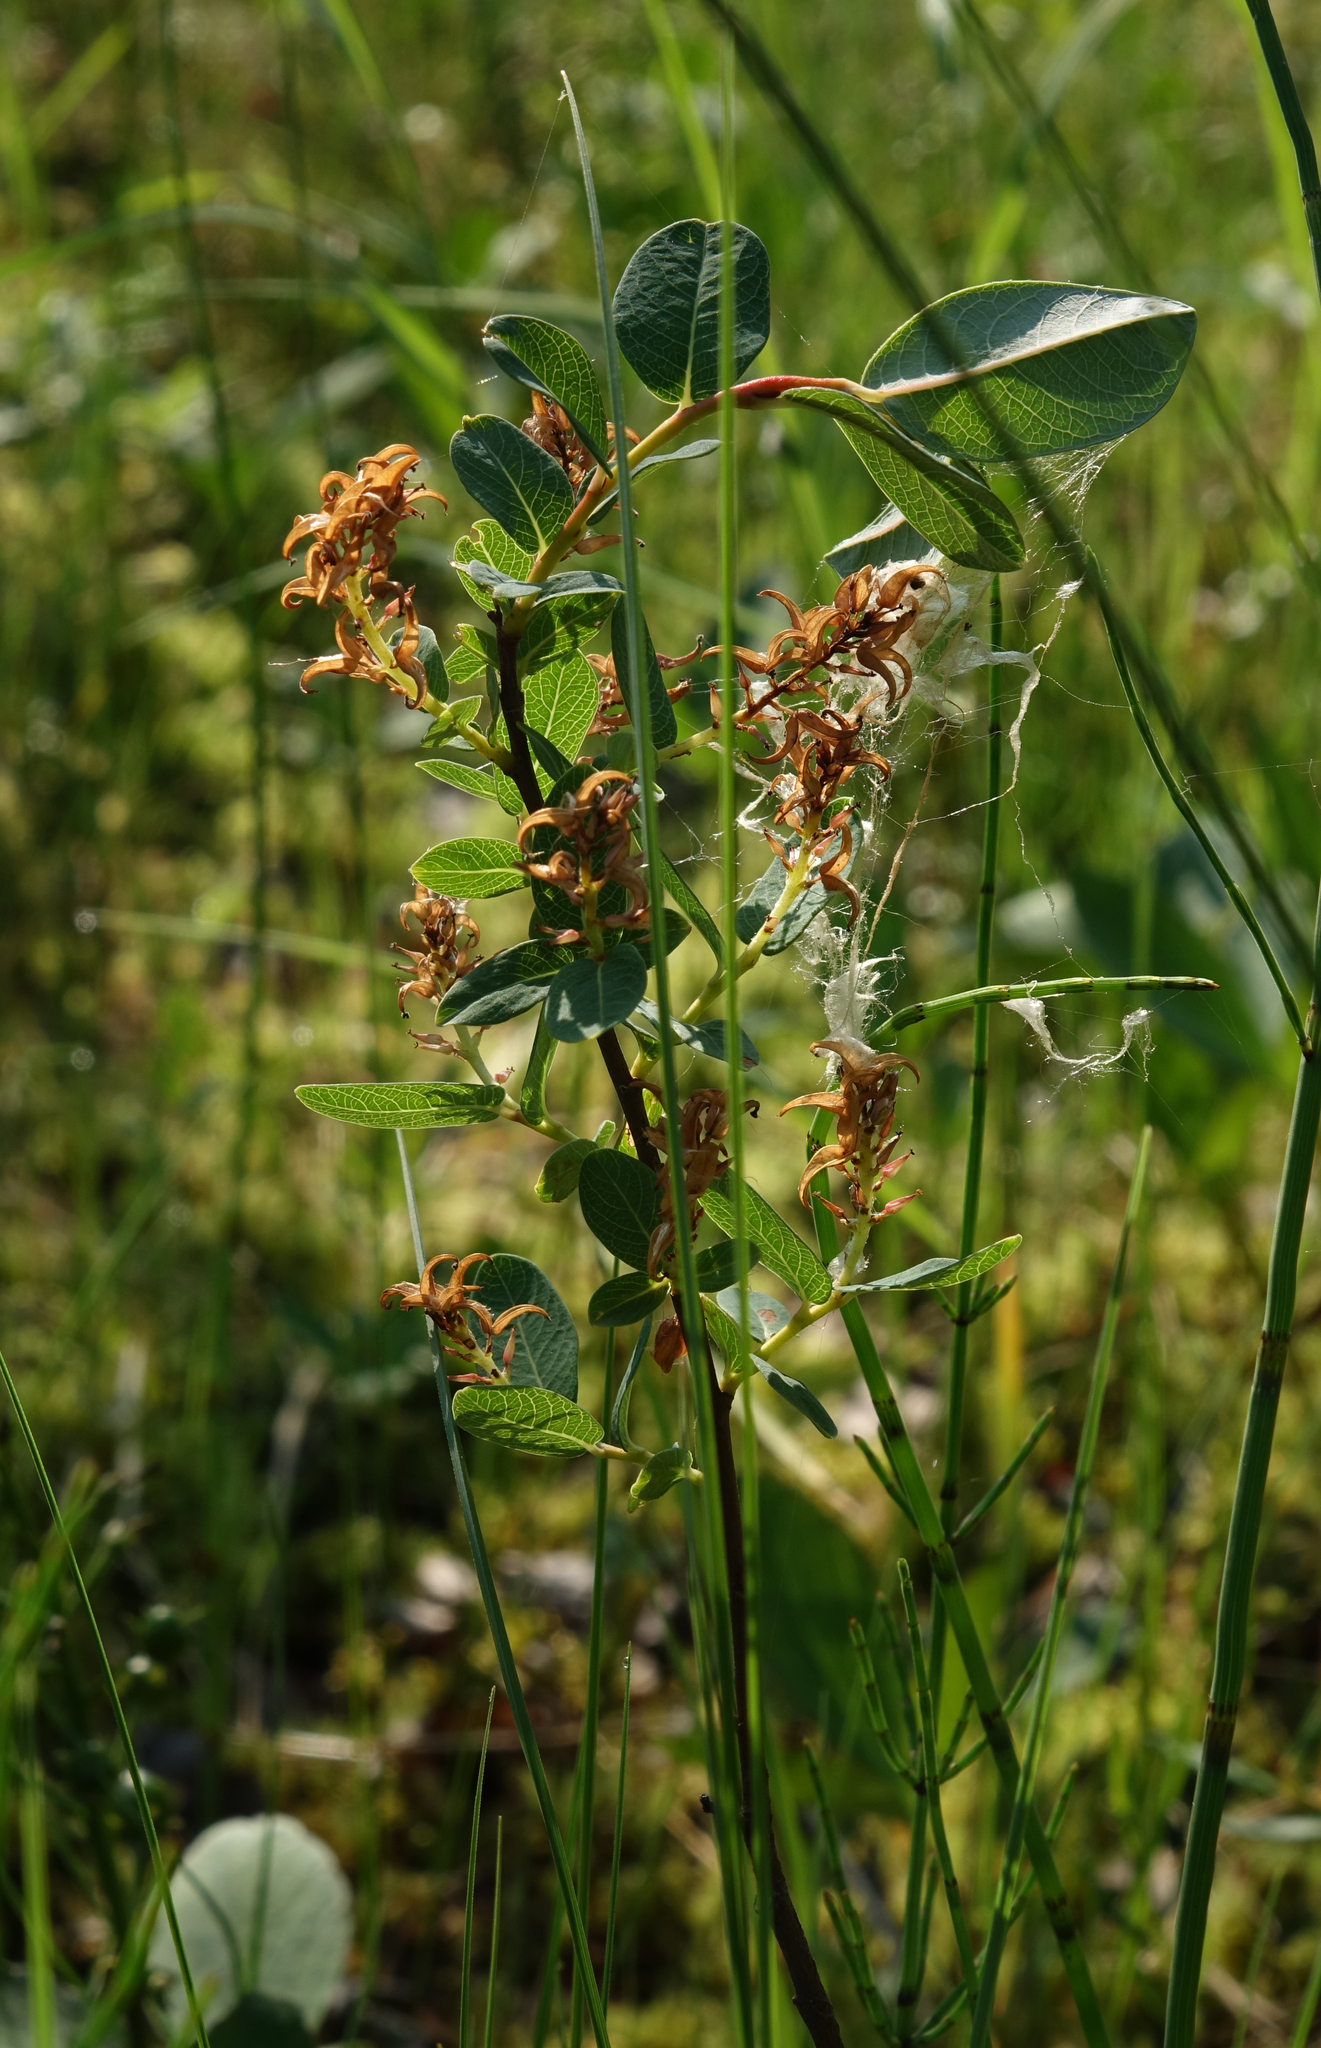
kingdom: Plantae
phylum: Tracheophyta
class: Magnoliopsida
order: Malpighiales
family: Salicaceae
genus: Salix
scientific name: Salix myrtilloides
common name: Myrtle-leaved willow
